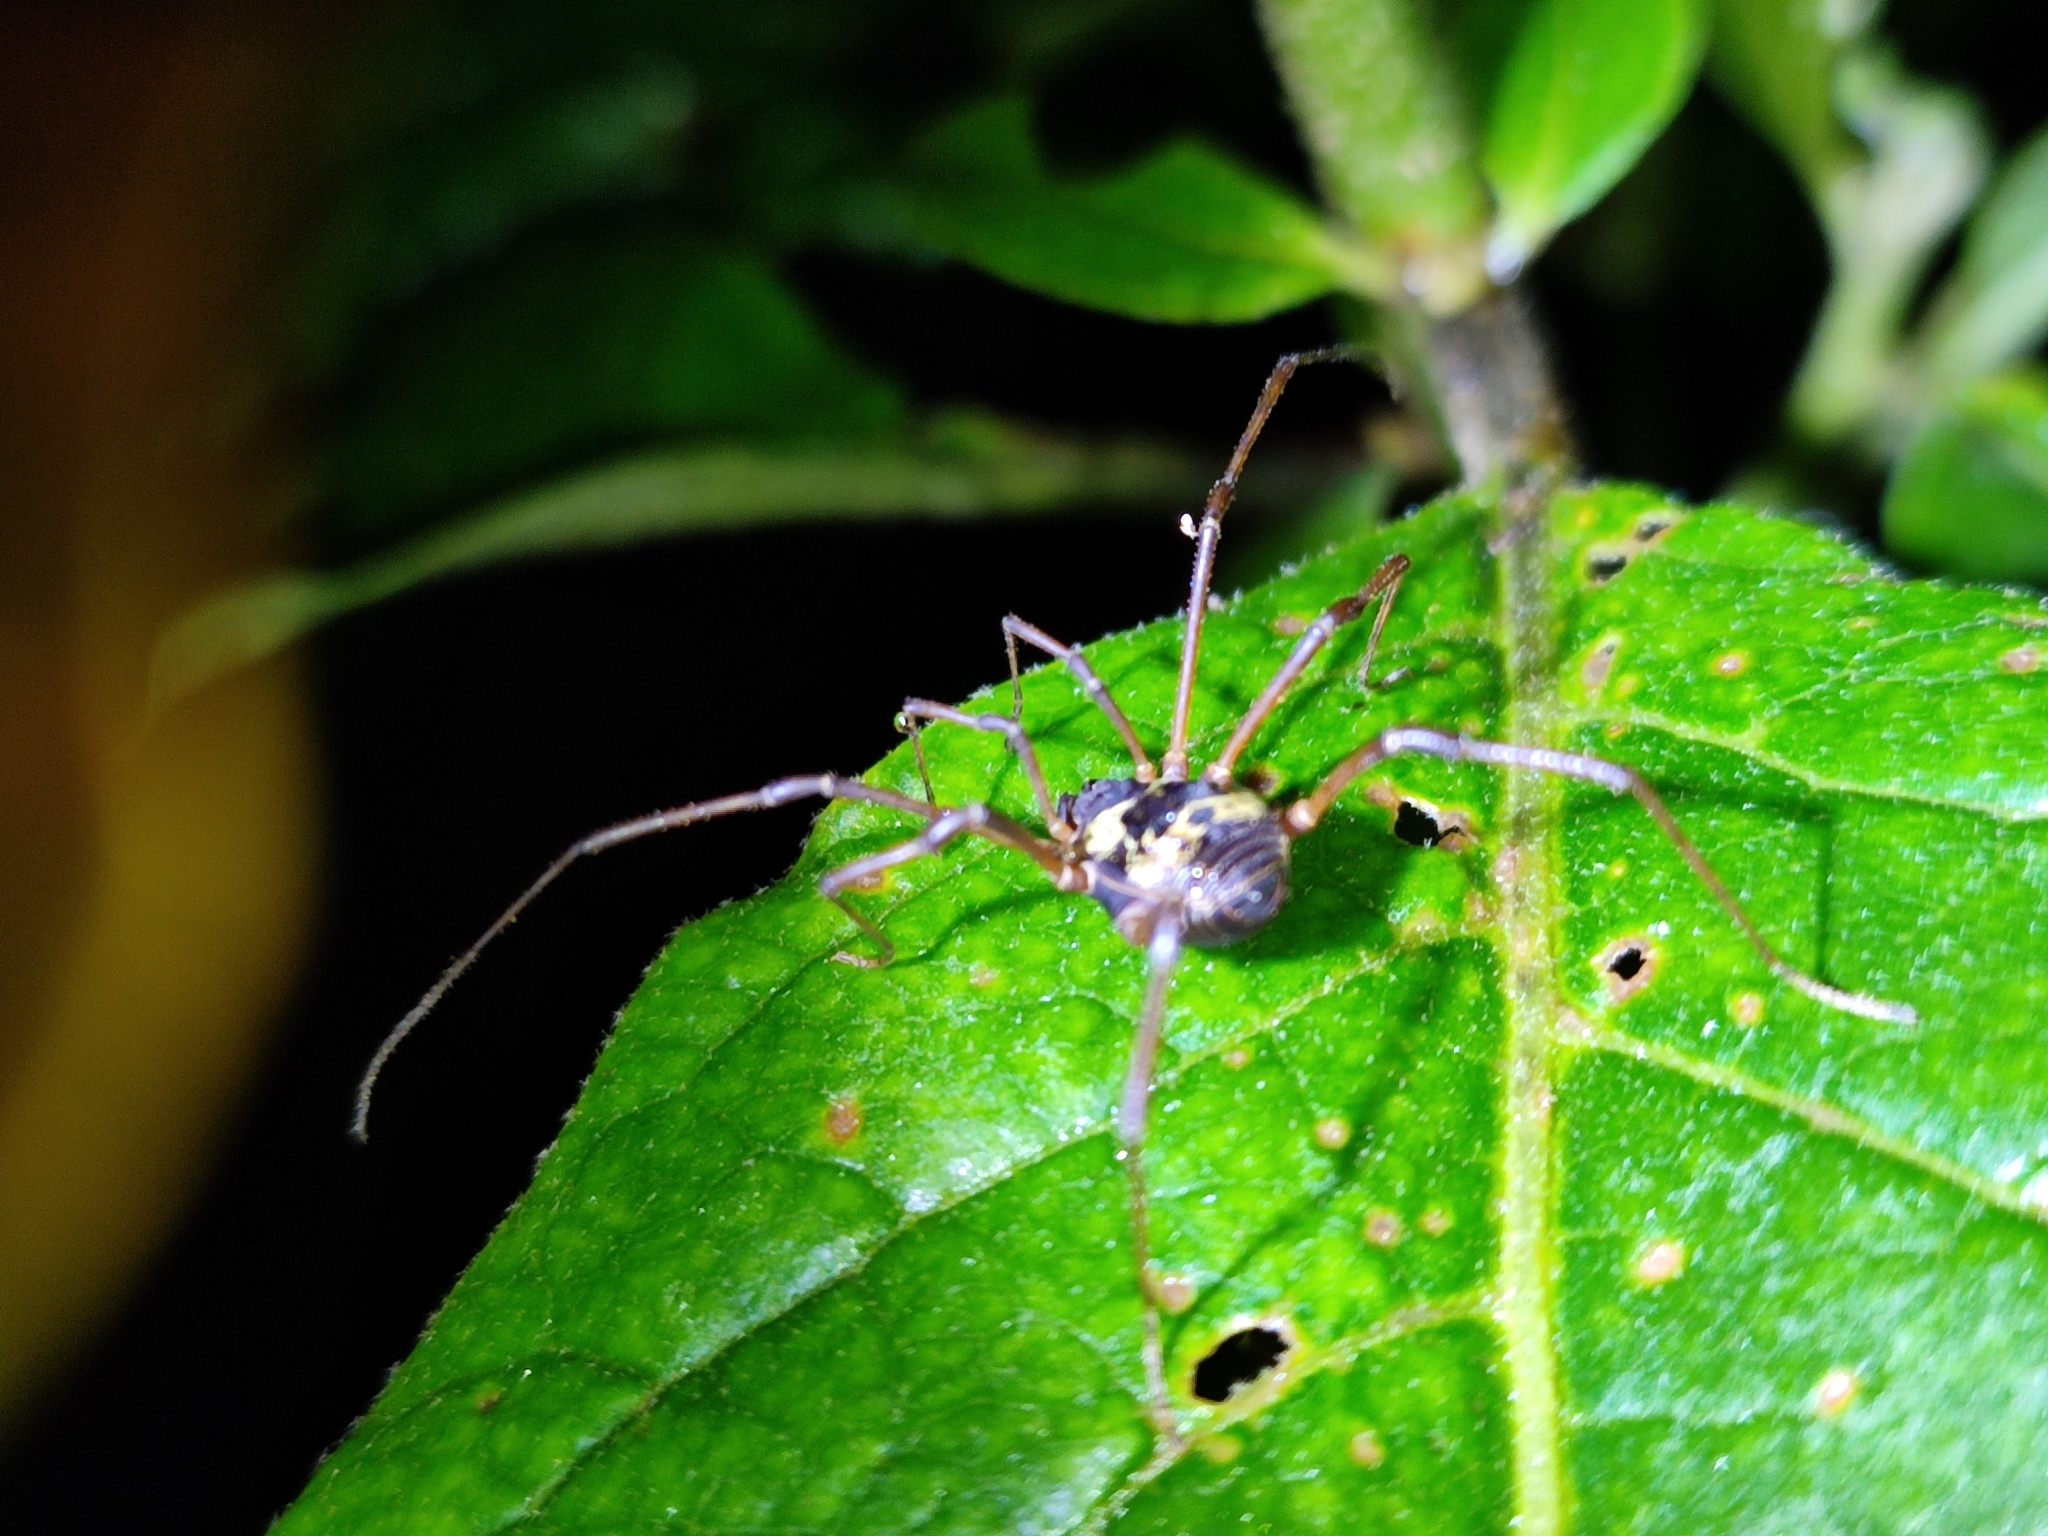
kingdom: Animalia
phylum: Arthropoda
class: Arachnida
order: Opiliones
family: Cosmetidae
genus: Cynorta
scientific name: Cynorta casita
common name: Harvestmen
